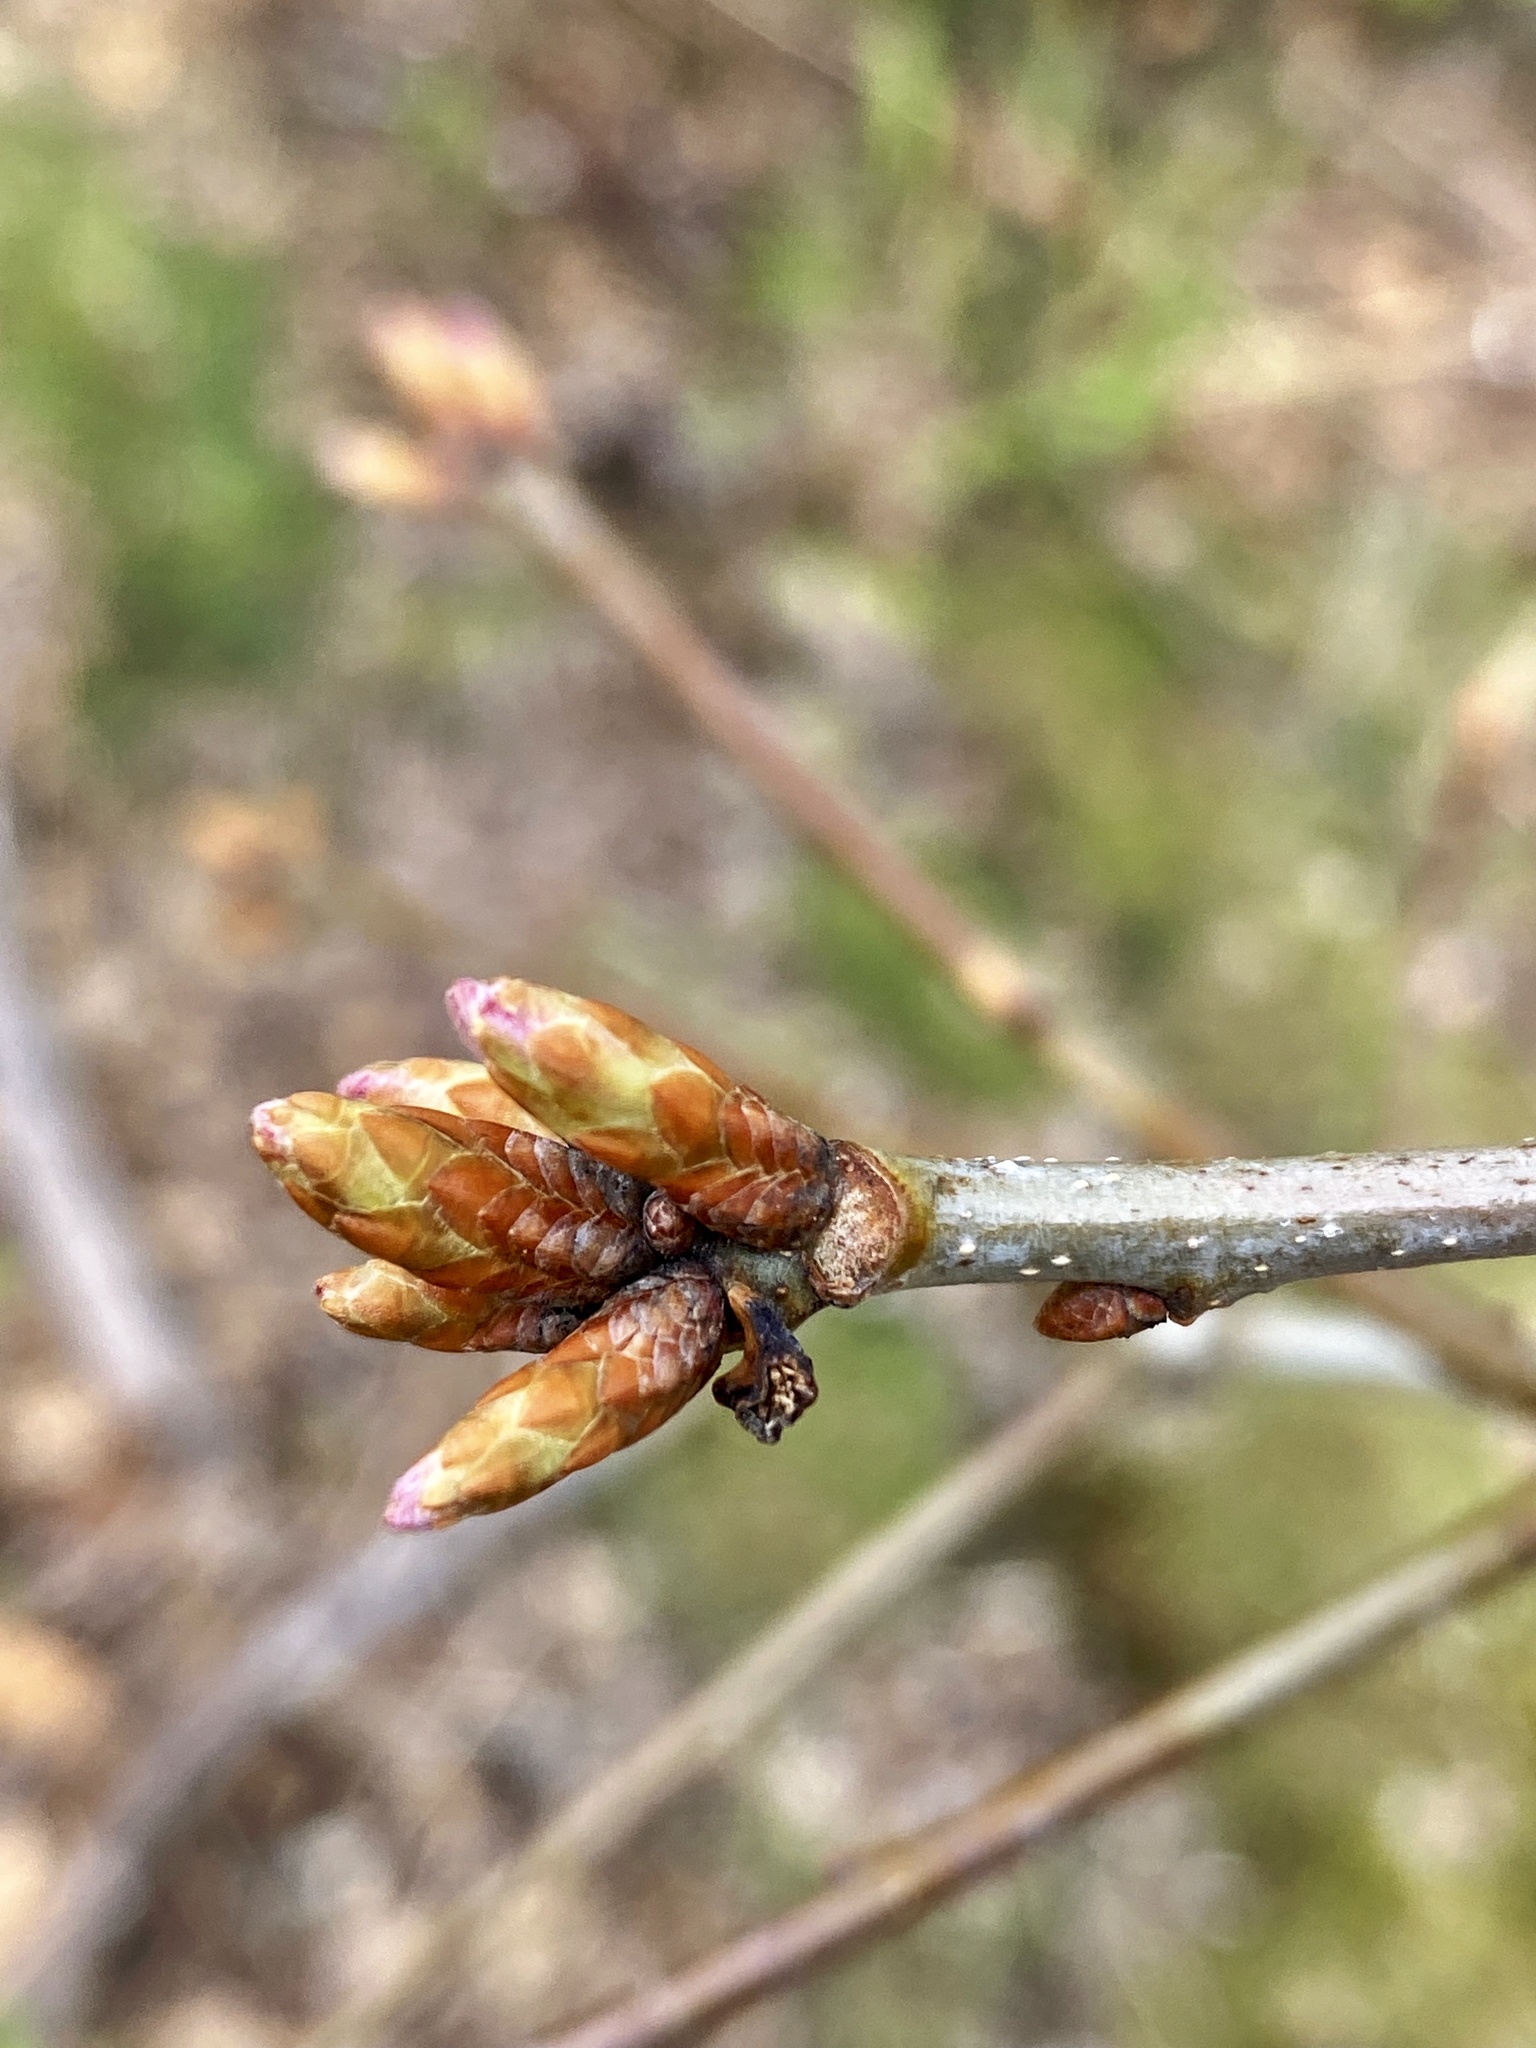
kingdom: Plantae
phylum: Tracheophyta
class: Magnoliopsida
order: Fagales
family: Fagaceae
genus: Quercus
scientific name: Quercus alba
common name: White oak
